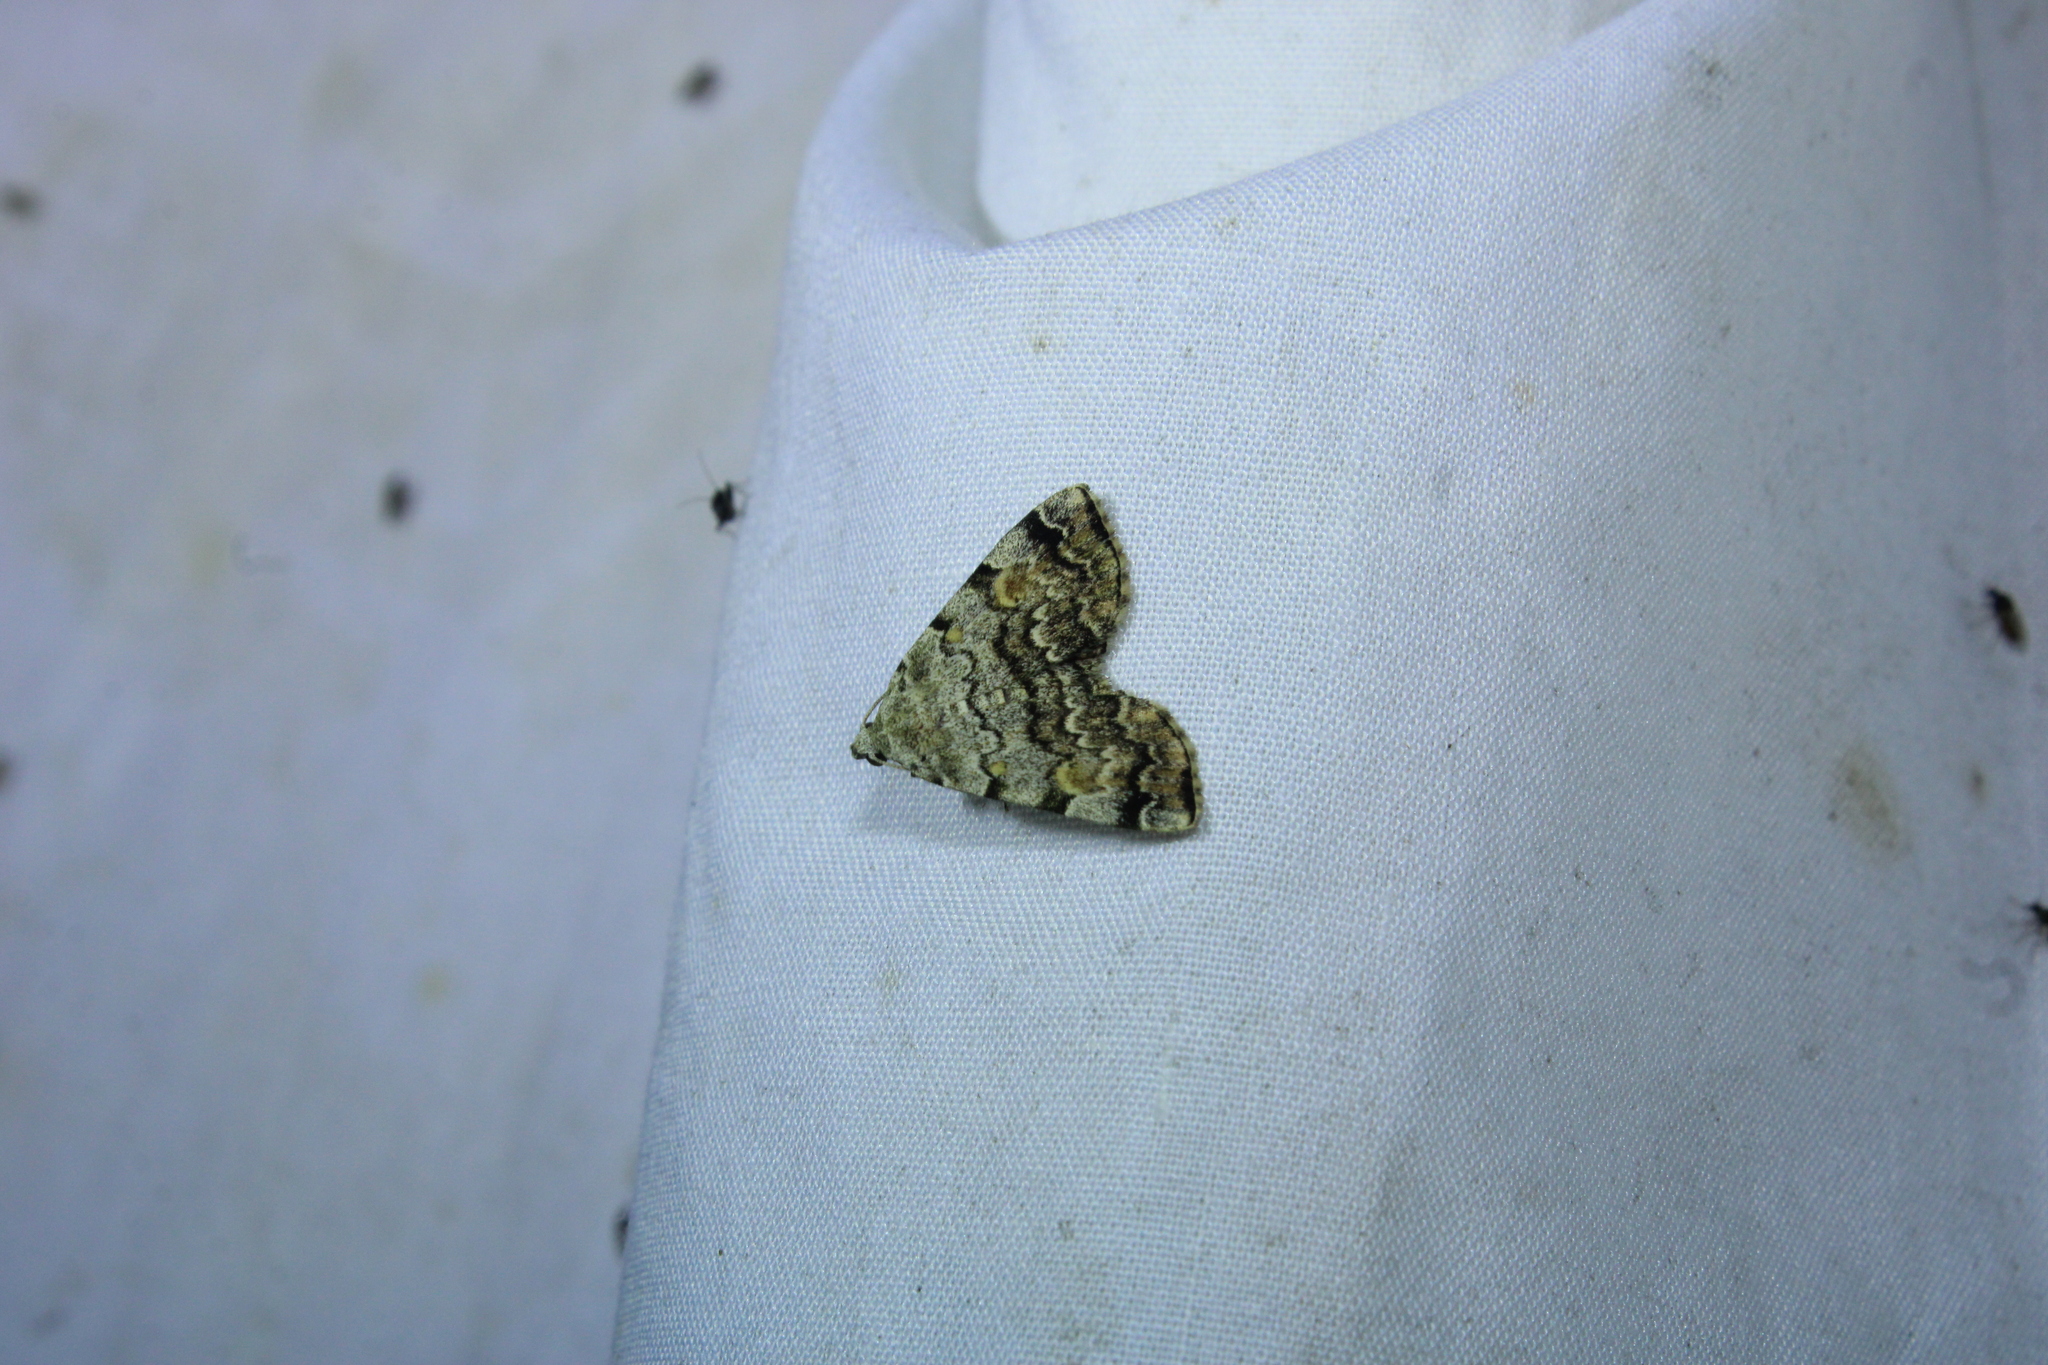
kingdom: Animalia
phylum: Arthropoda
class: Insecta
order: Lepidoptera
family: Erebidae
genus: Idia
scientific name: Idia americalis
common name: American idia moth
